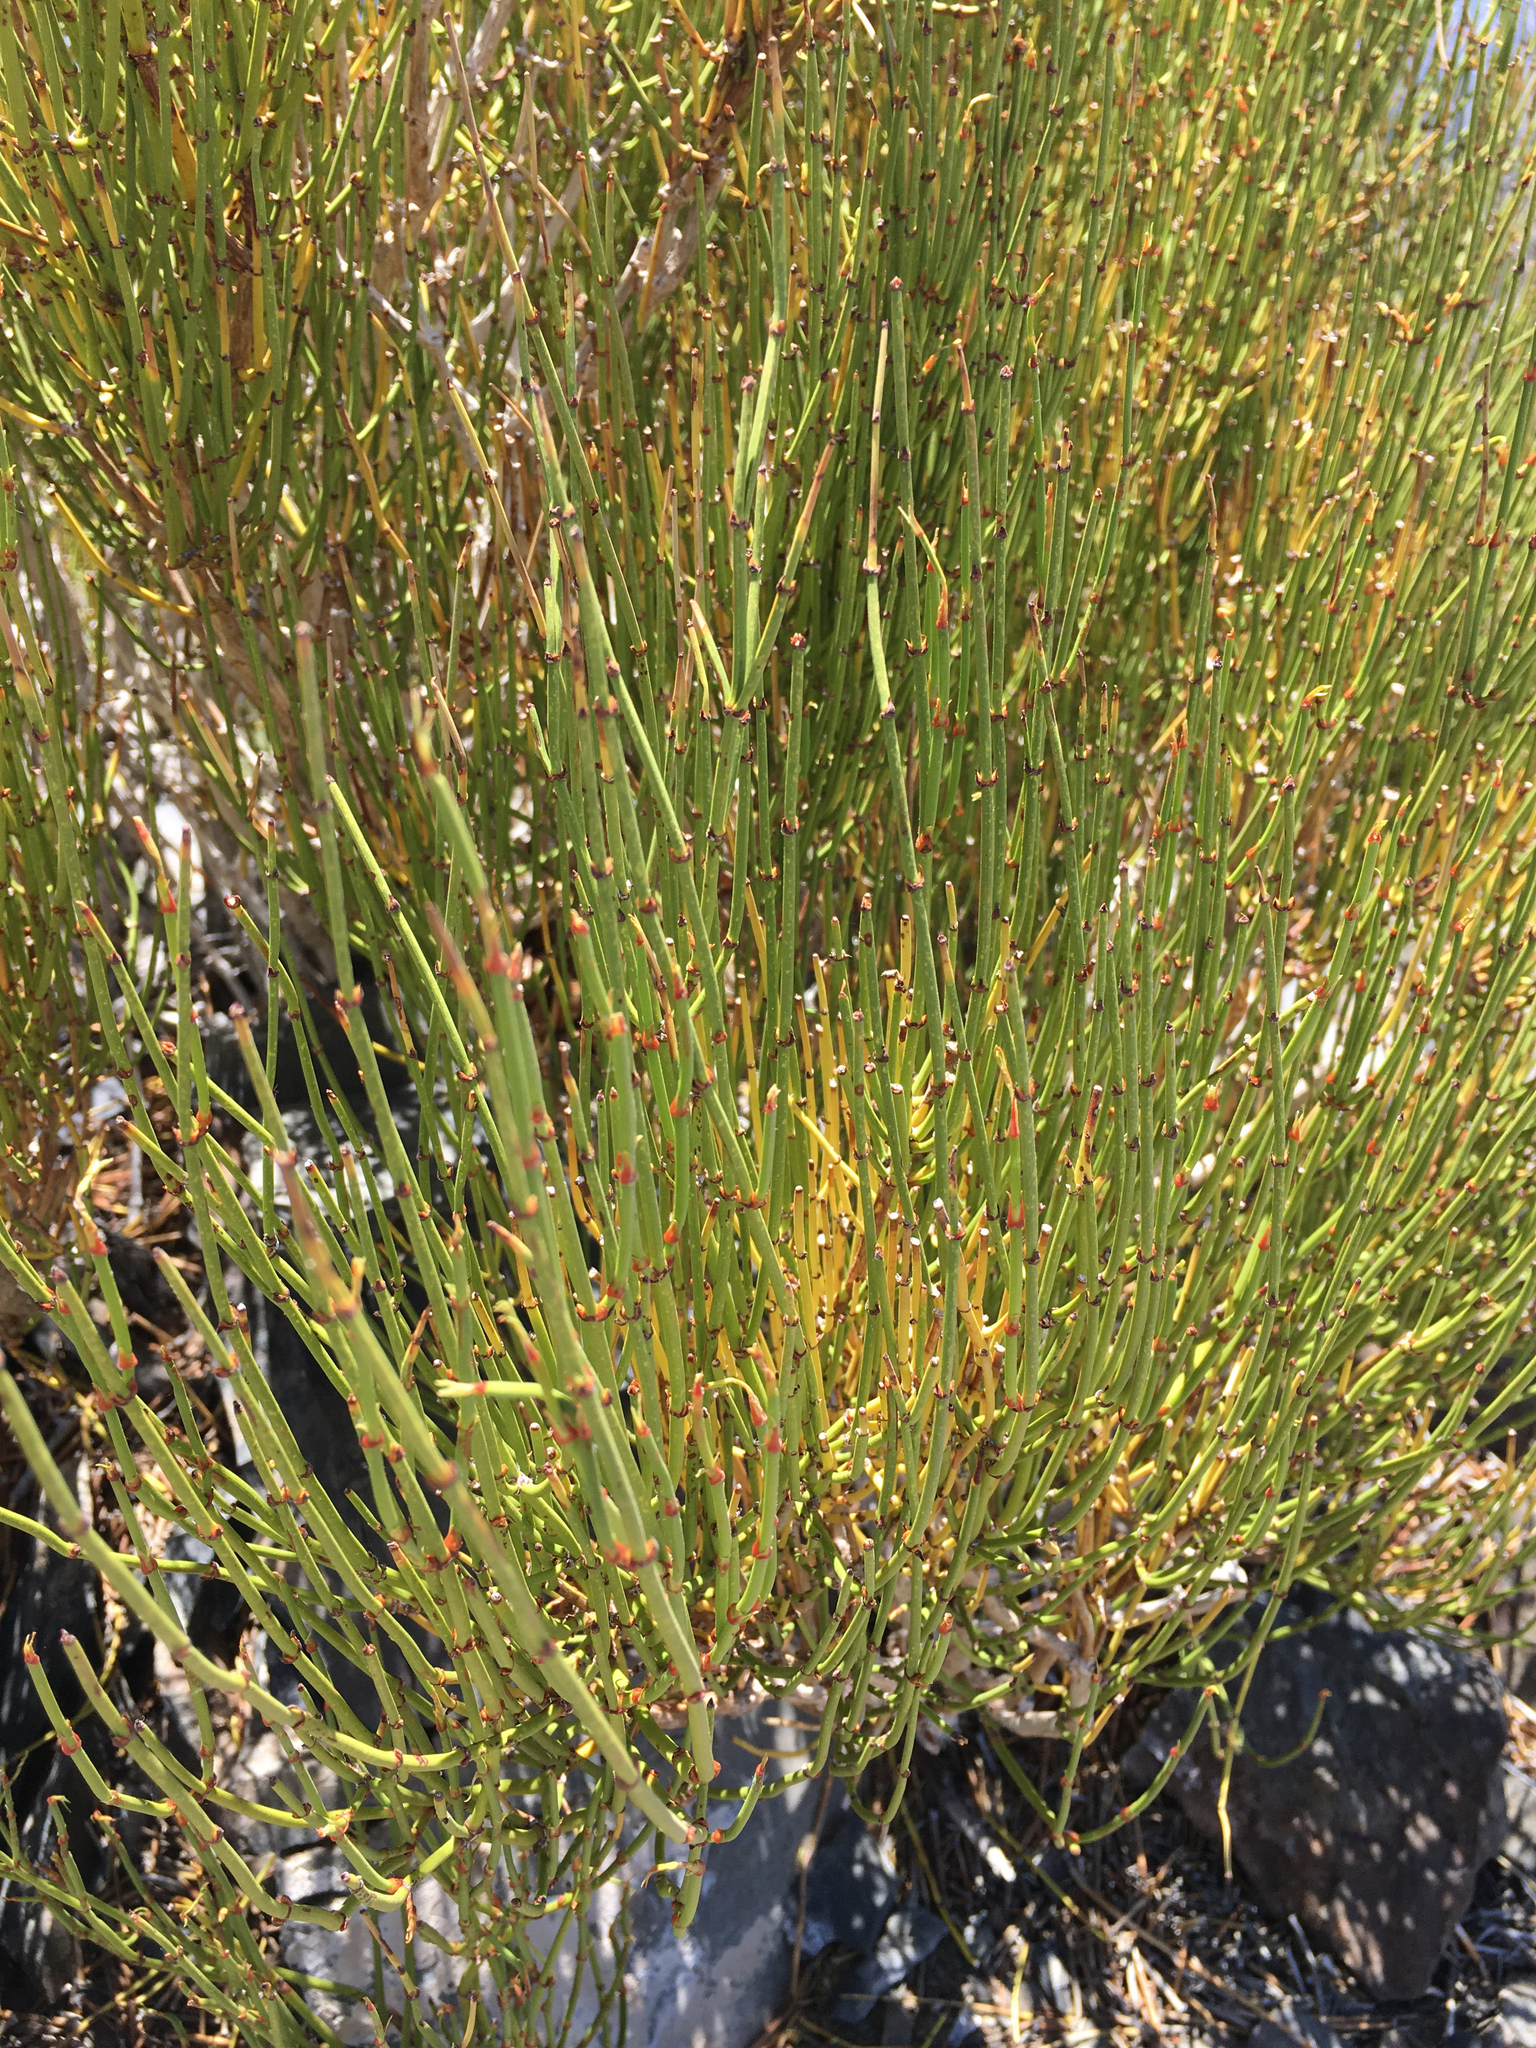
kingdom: Plantae
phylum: Tracheophyta
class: Gnetopsida
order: Ephedrales
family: Ephedraceae
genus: Ephedra
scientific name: Ephedra viridis
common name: Green ephedra
